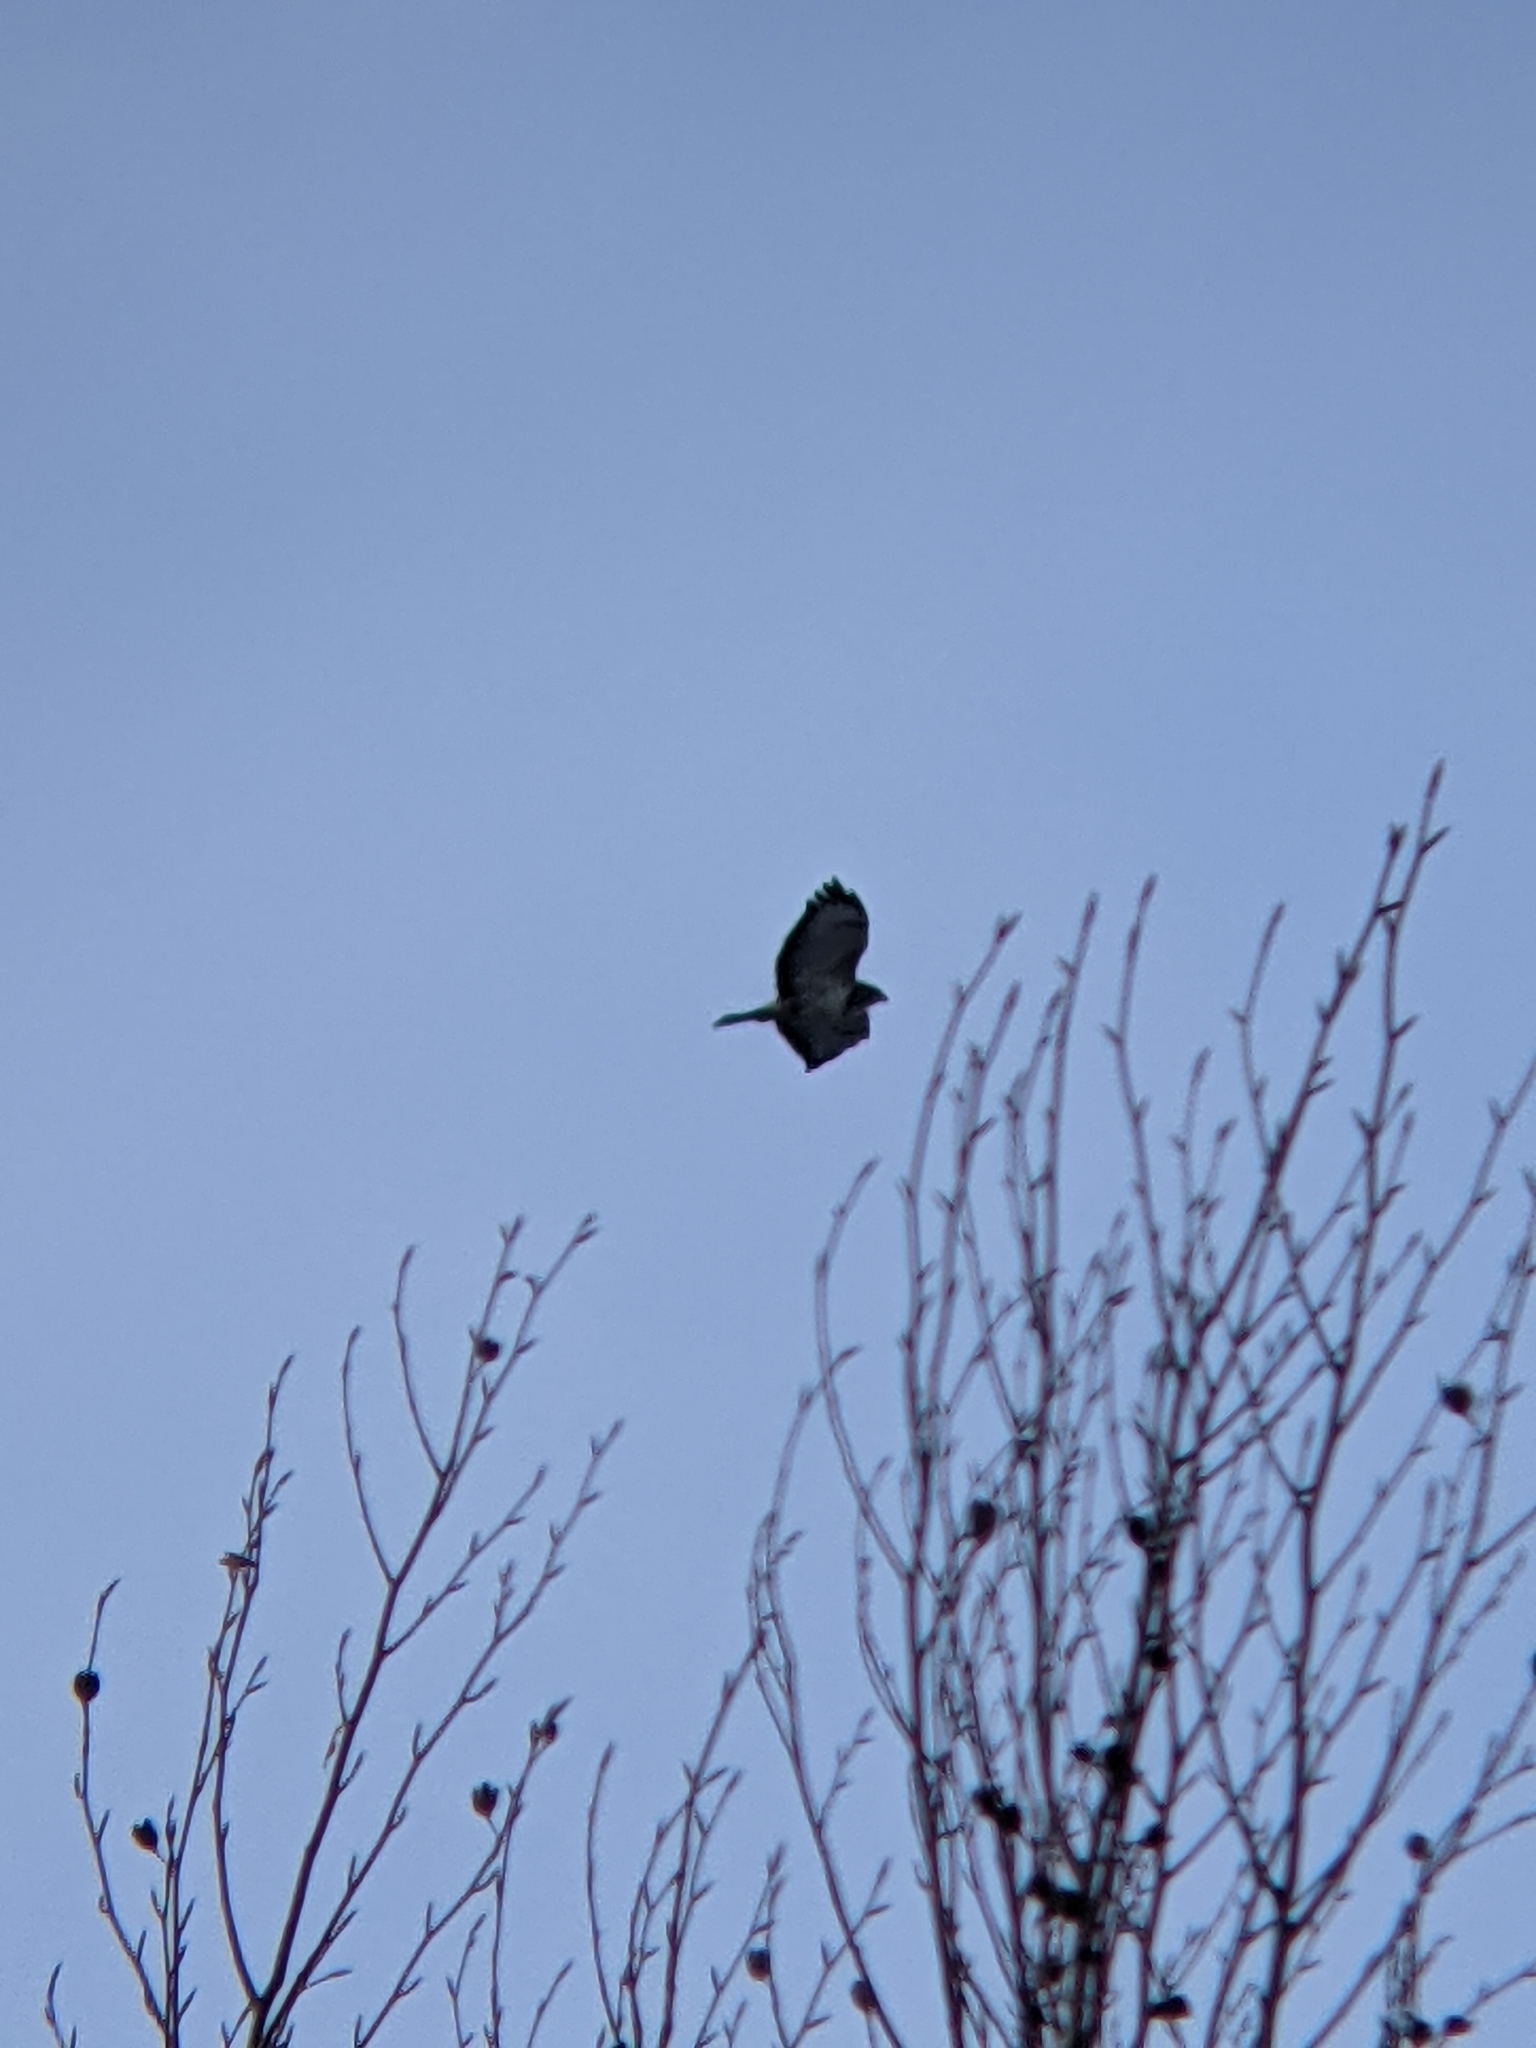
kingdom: Animalia
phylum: Chordata
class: Aves
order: Accipitriformes
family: Accipitridae
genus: Buteo
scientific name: Buteo buteo
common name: Common buzzard
